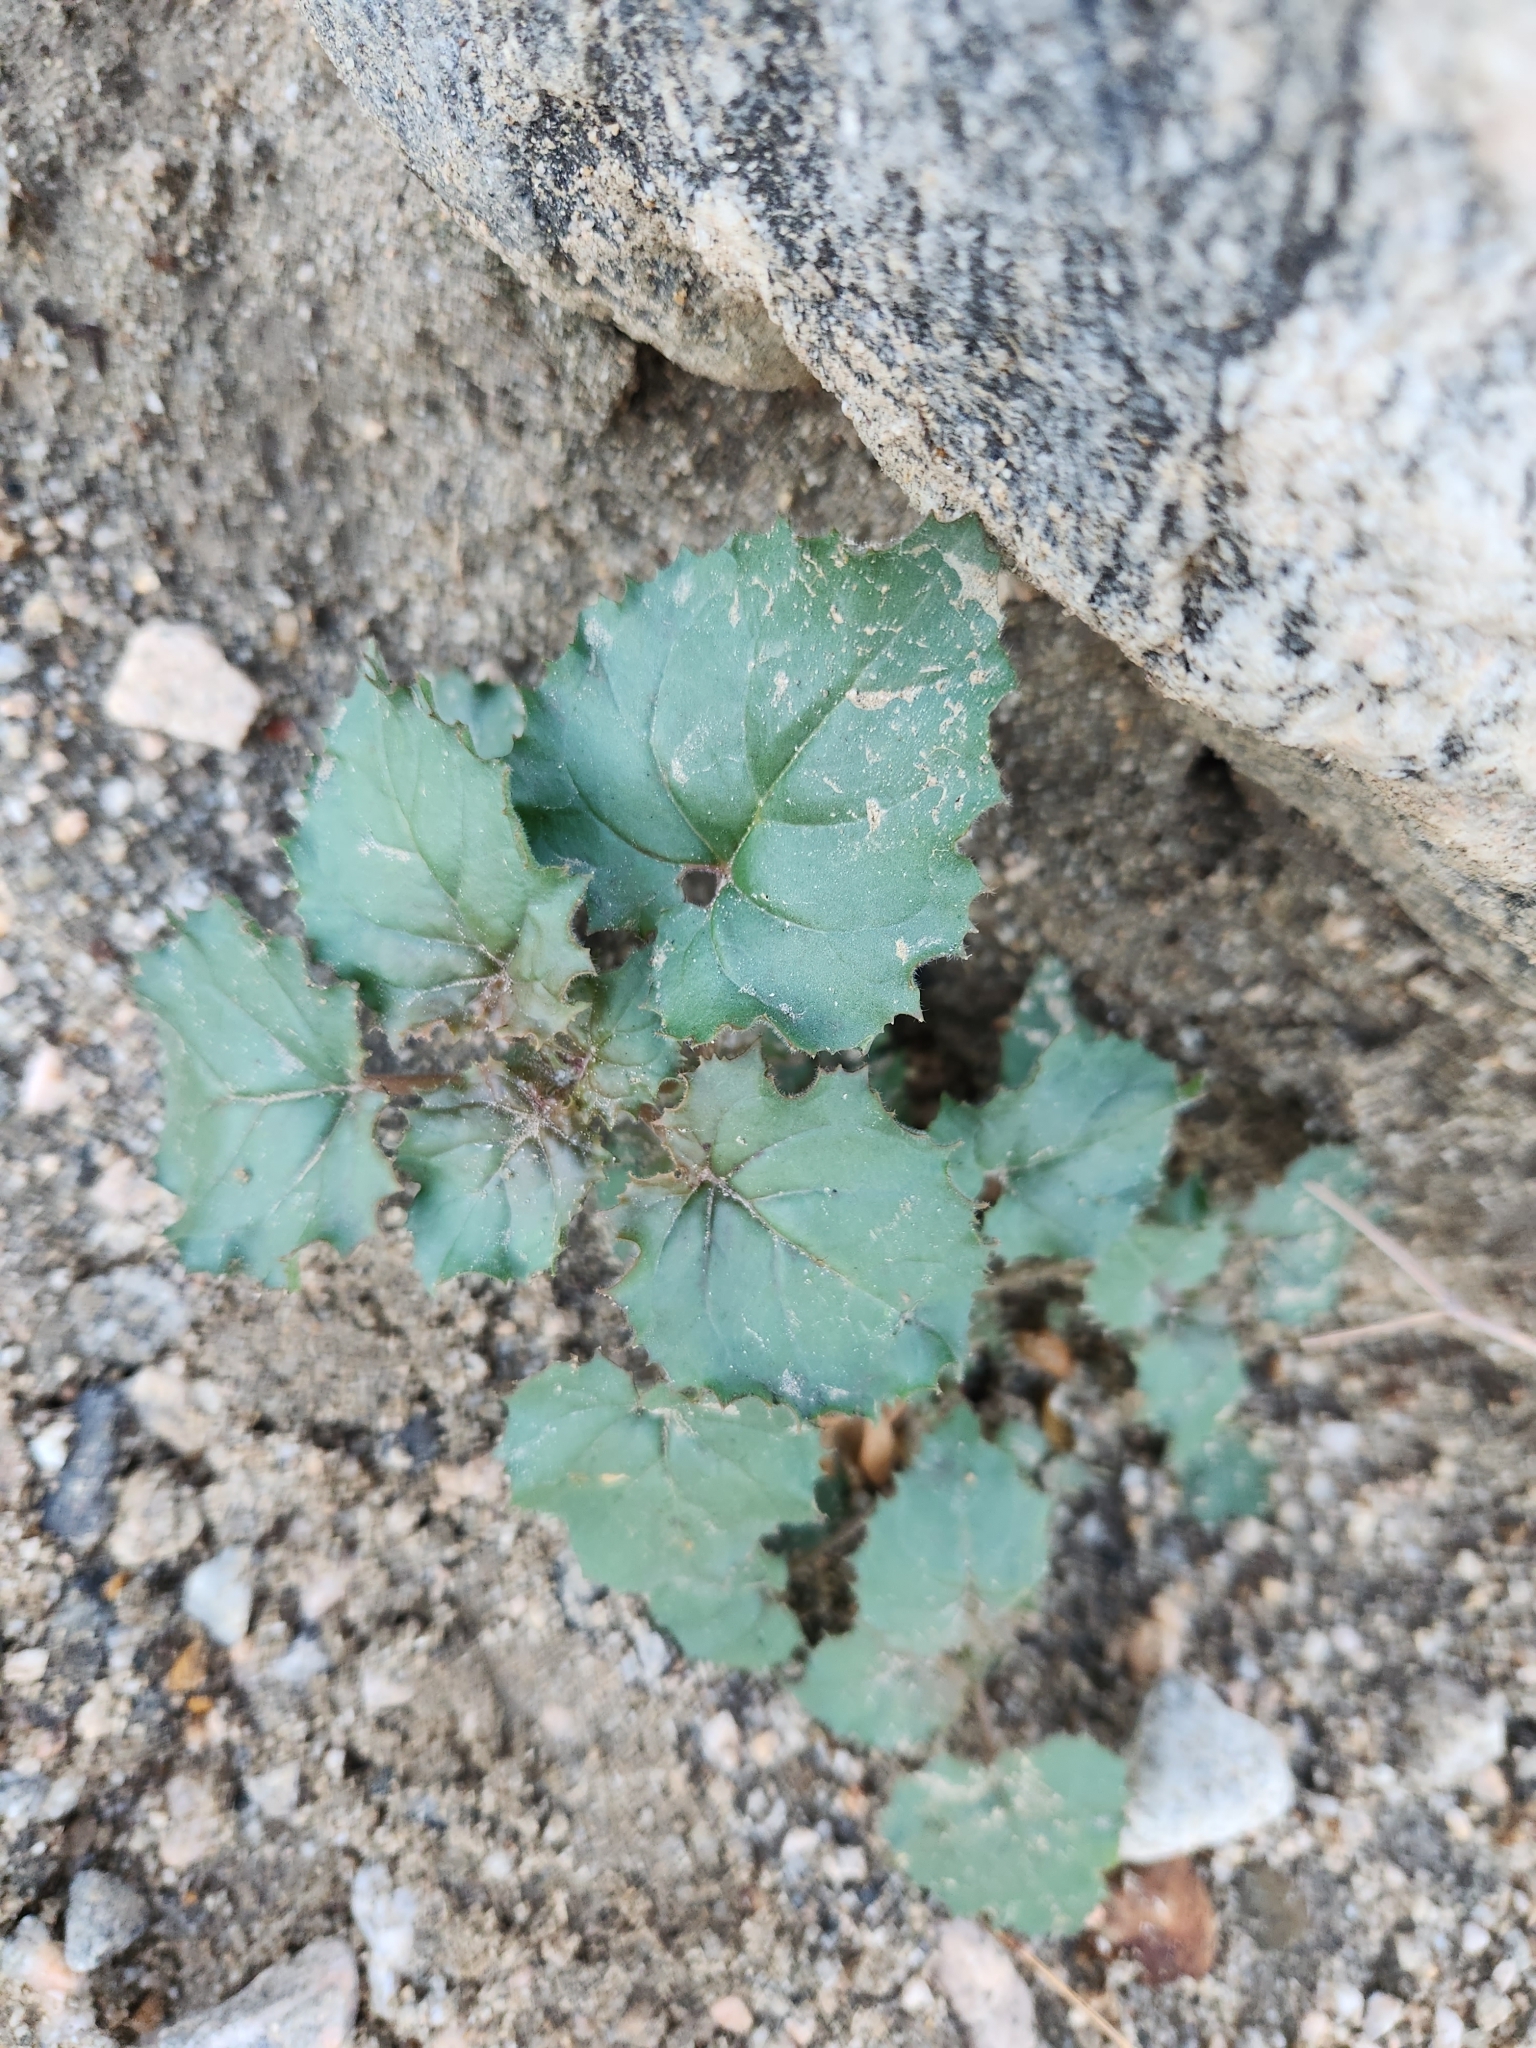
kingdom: Plantae
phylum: Tracheophyta
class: Magnoliopsida
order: Myrtales
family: Onagraceae
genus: Chylismia
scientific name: Chylismia cardiophylla
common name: Heartleaf suncup
